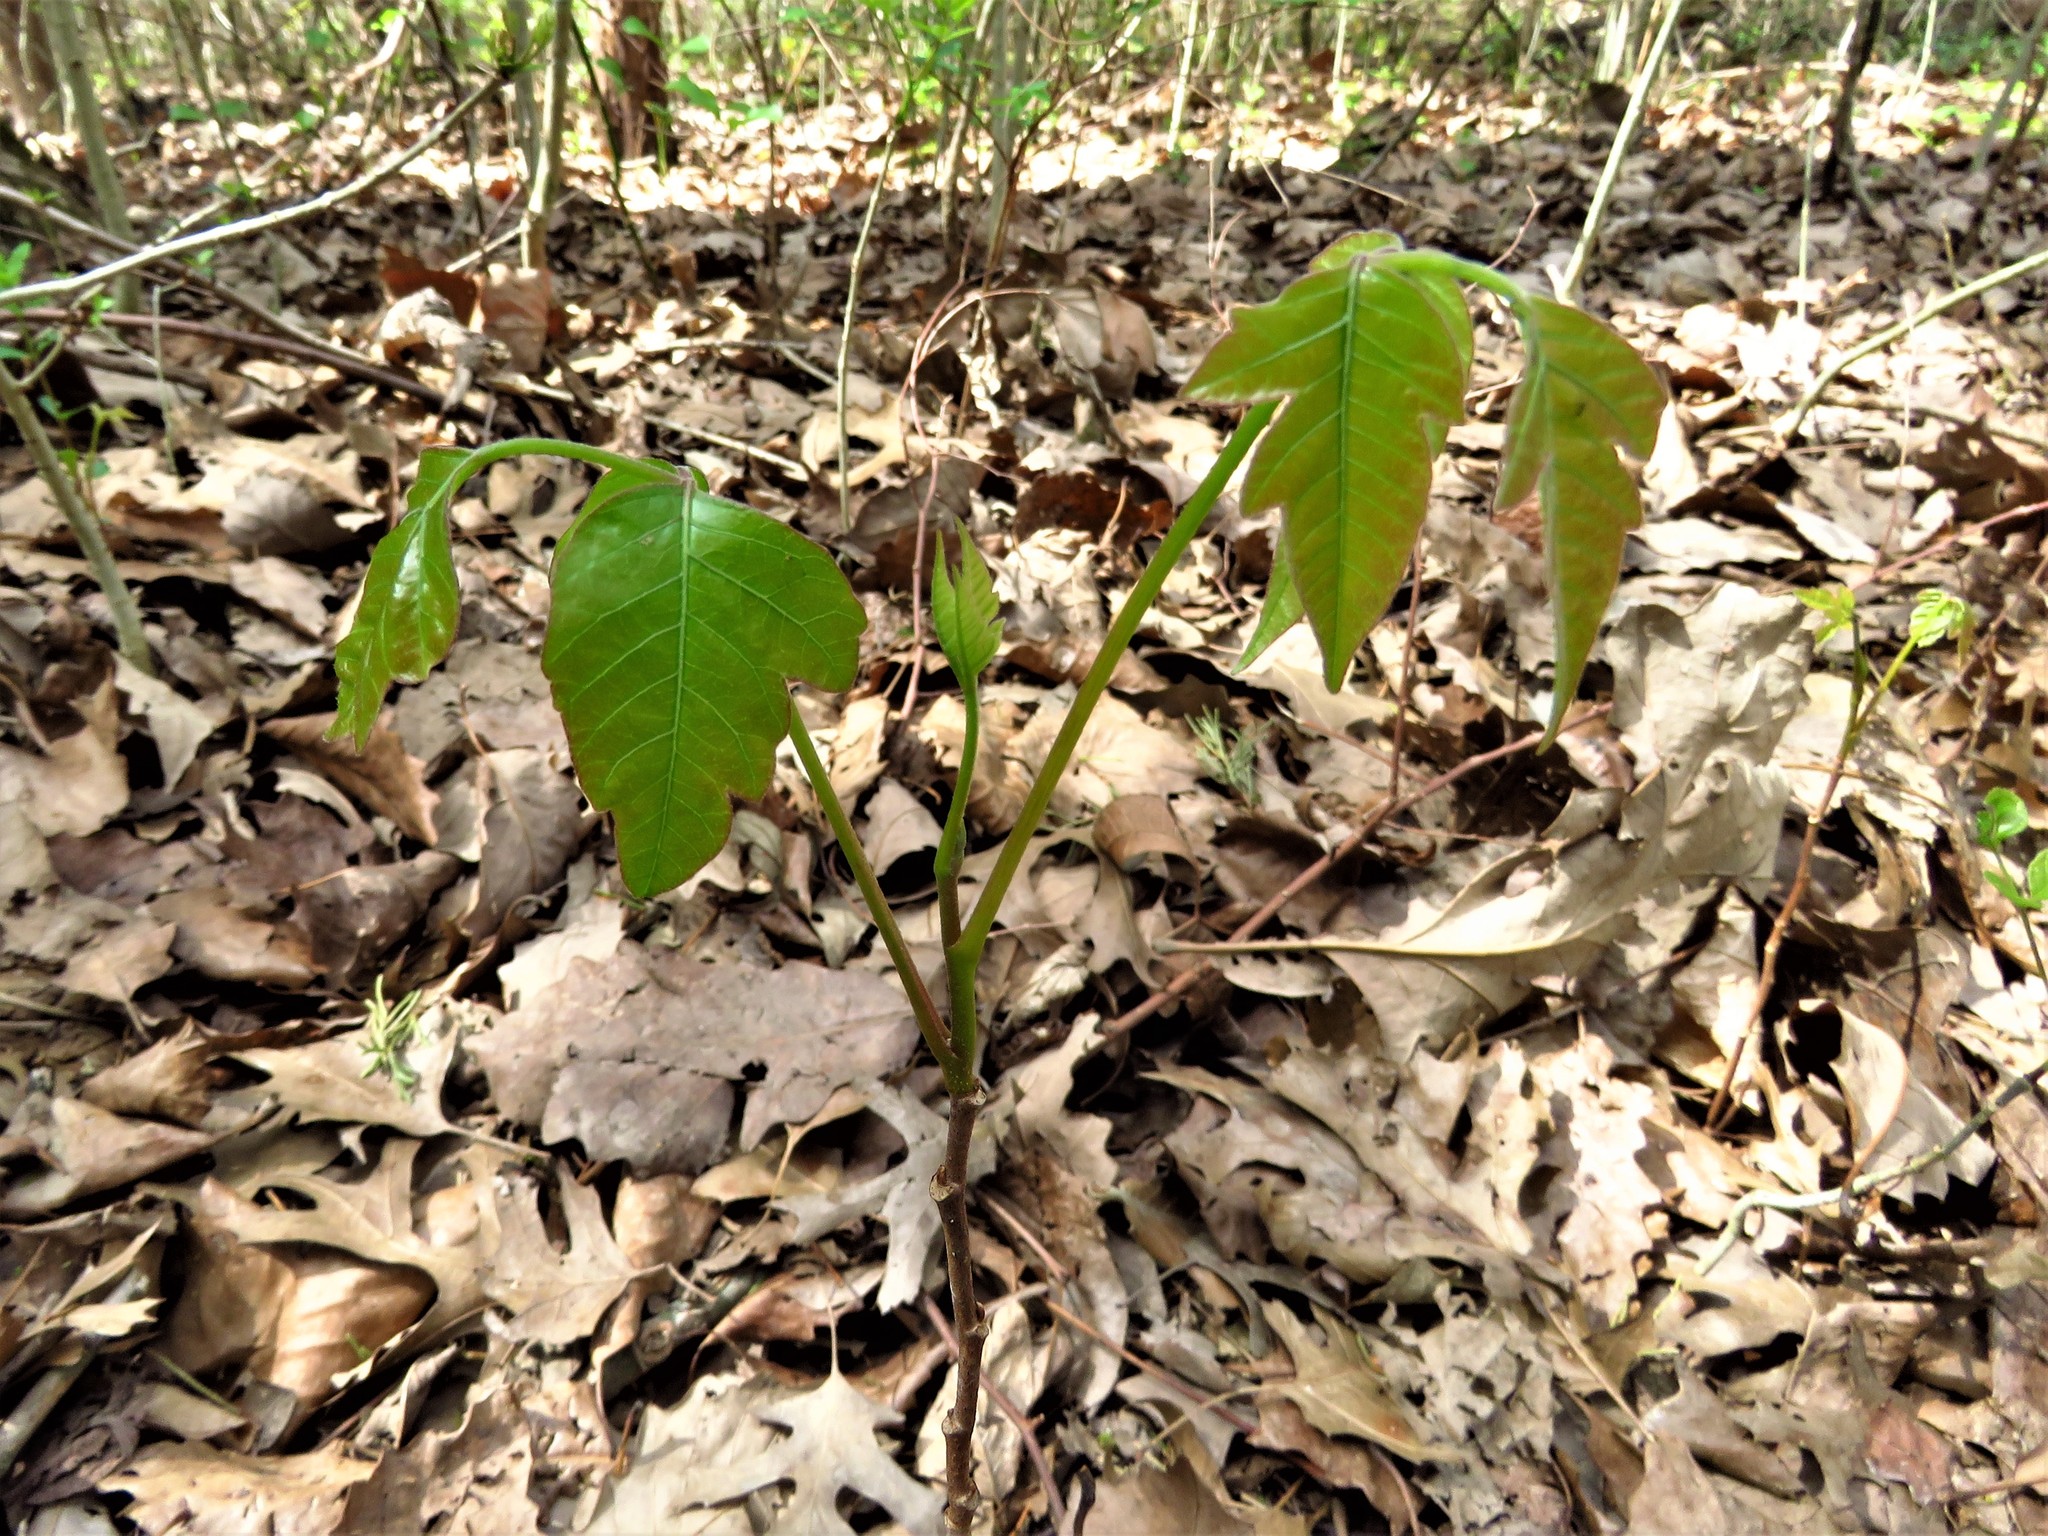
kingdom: Plantae
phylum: Tracheophyta
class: Magnoliopsida
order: Sapindales
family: Anacardiaceae
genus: Toxicodendron
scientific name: Toxicodendron radicans
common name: Poison ivy
